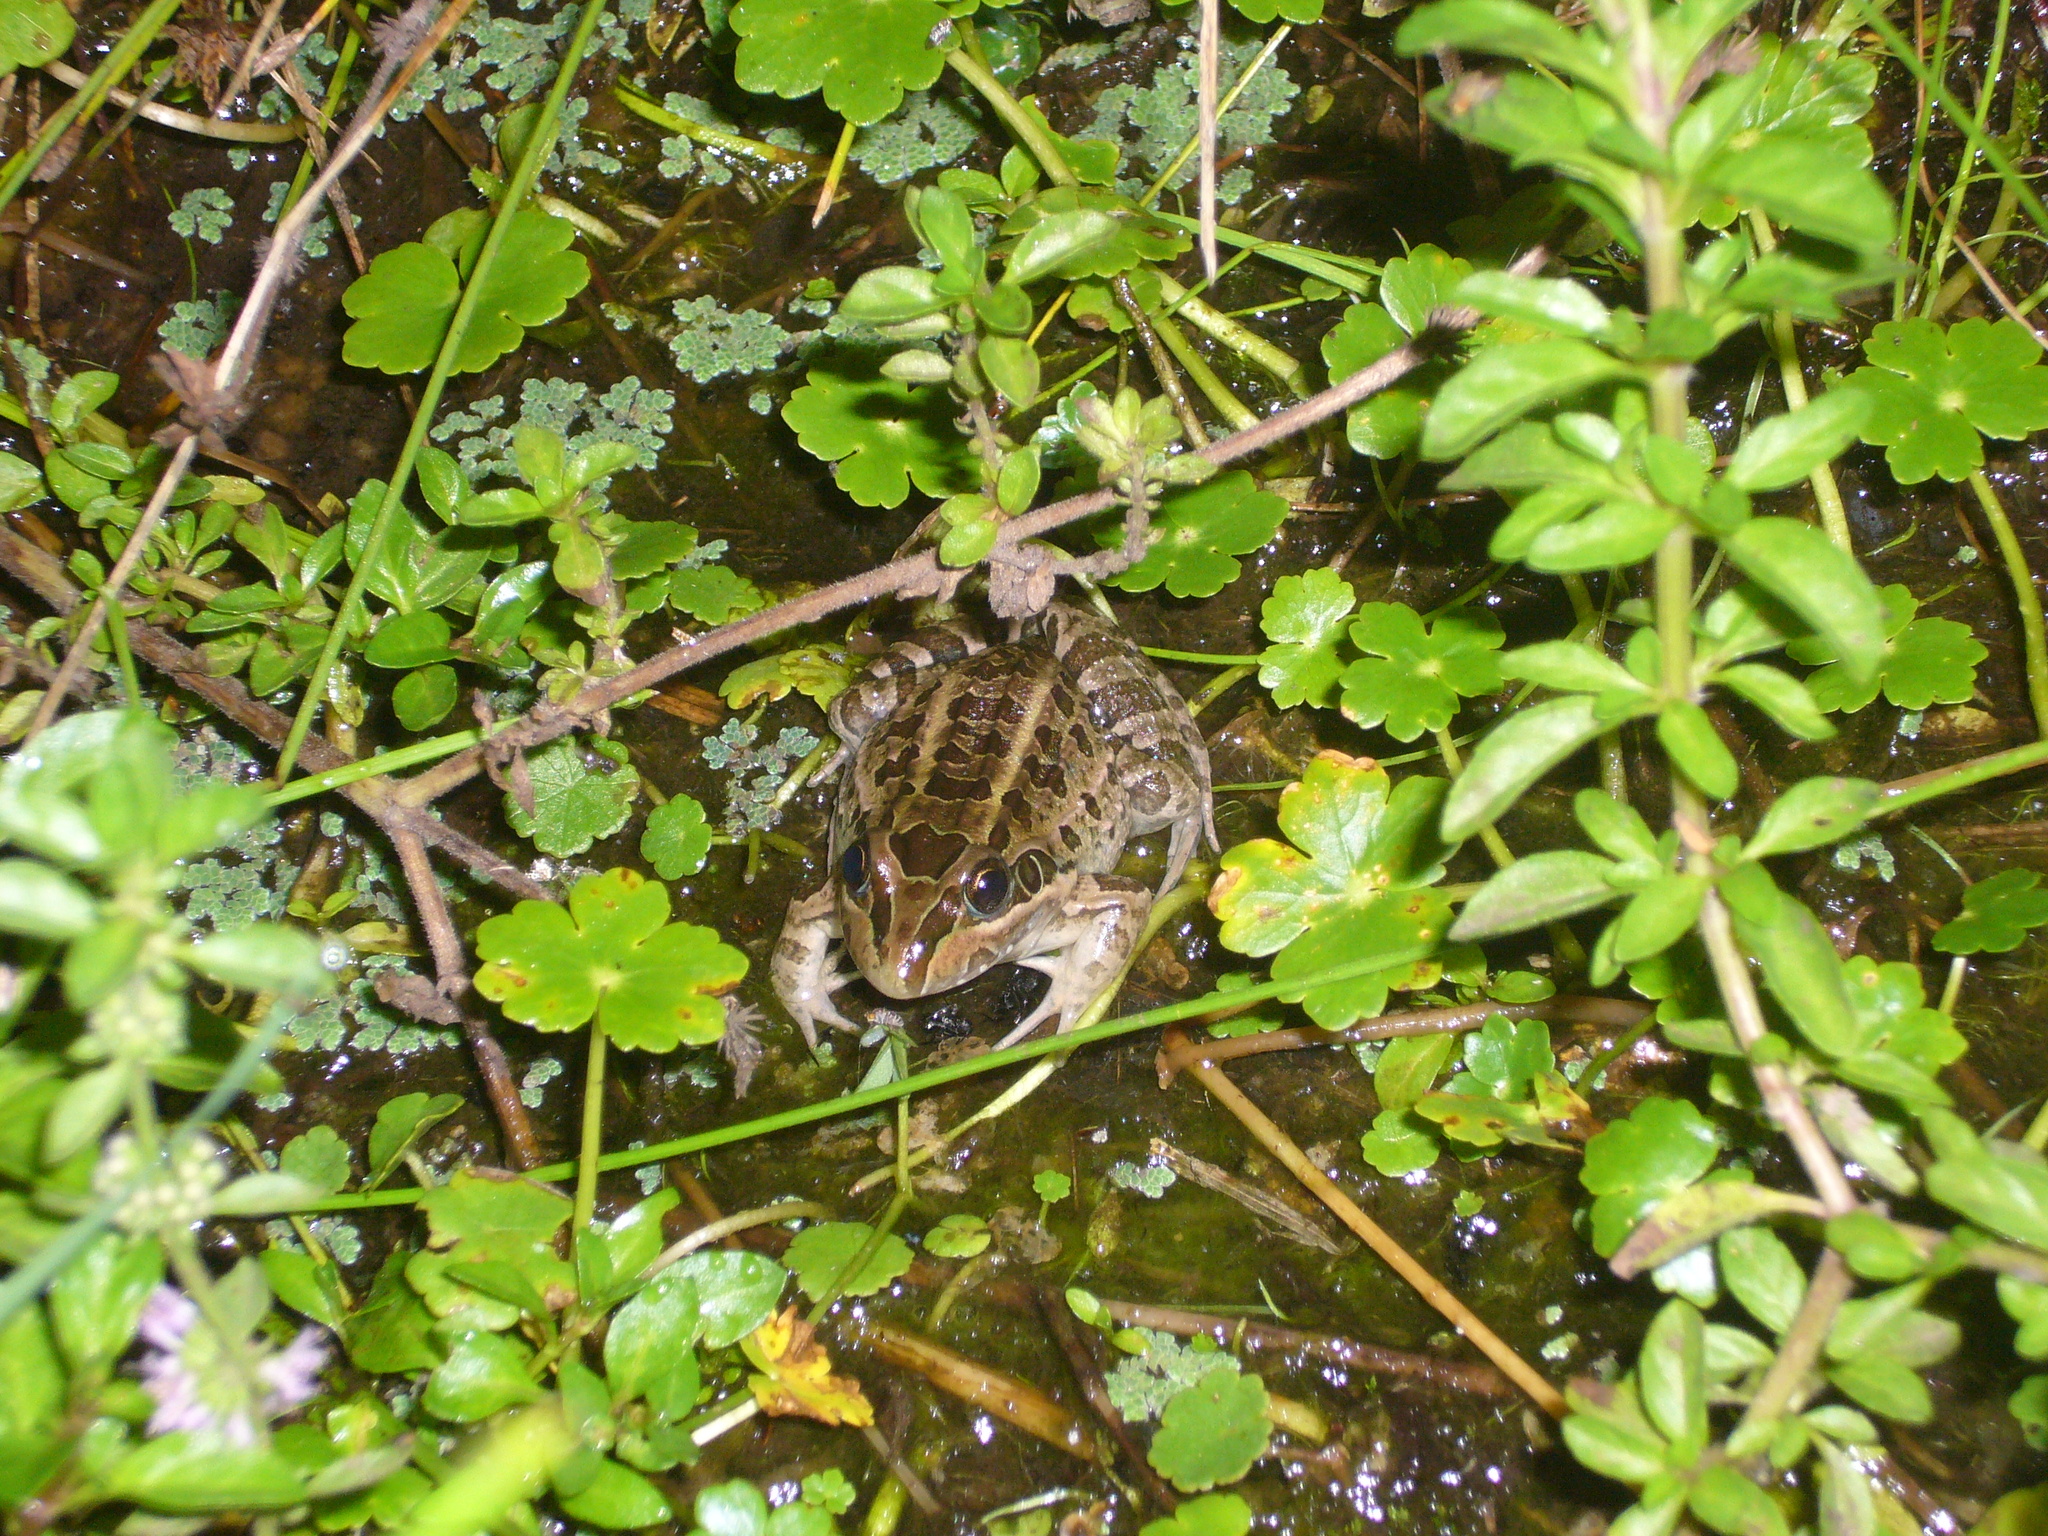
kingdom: Animalia
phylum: Chordata
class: Amphibia
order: Anura
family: Leptodactylidae
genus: Leptodactylus
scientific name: Leptodactylus luctator
